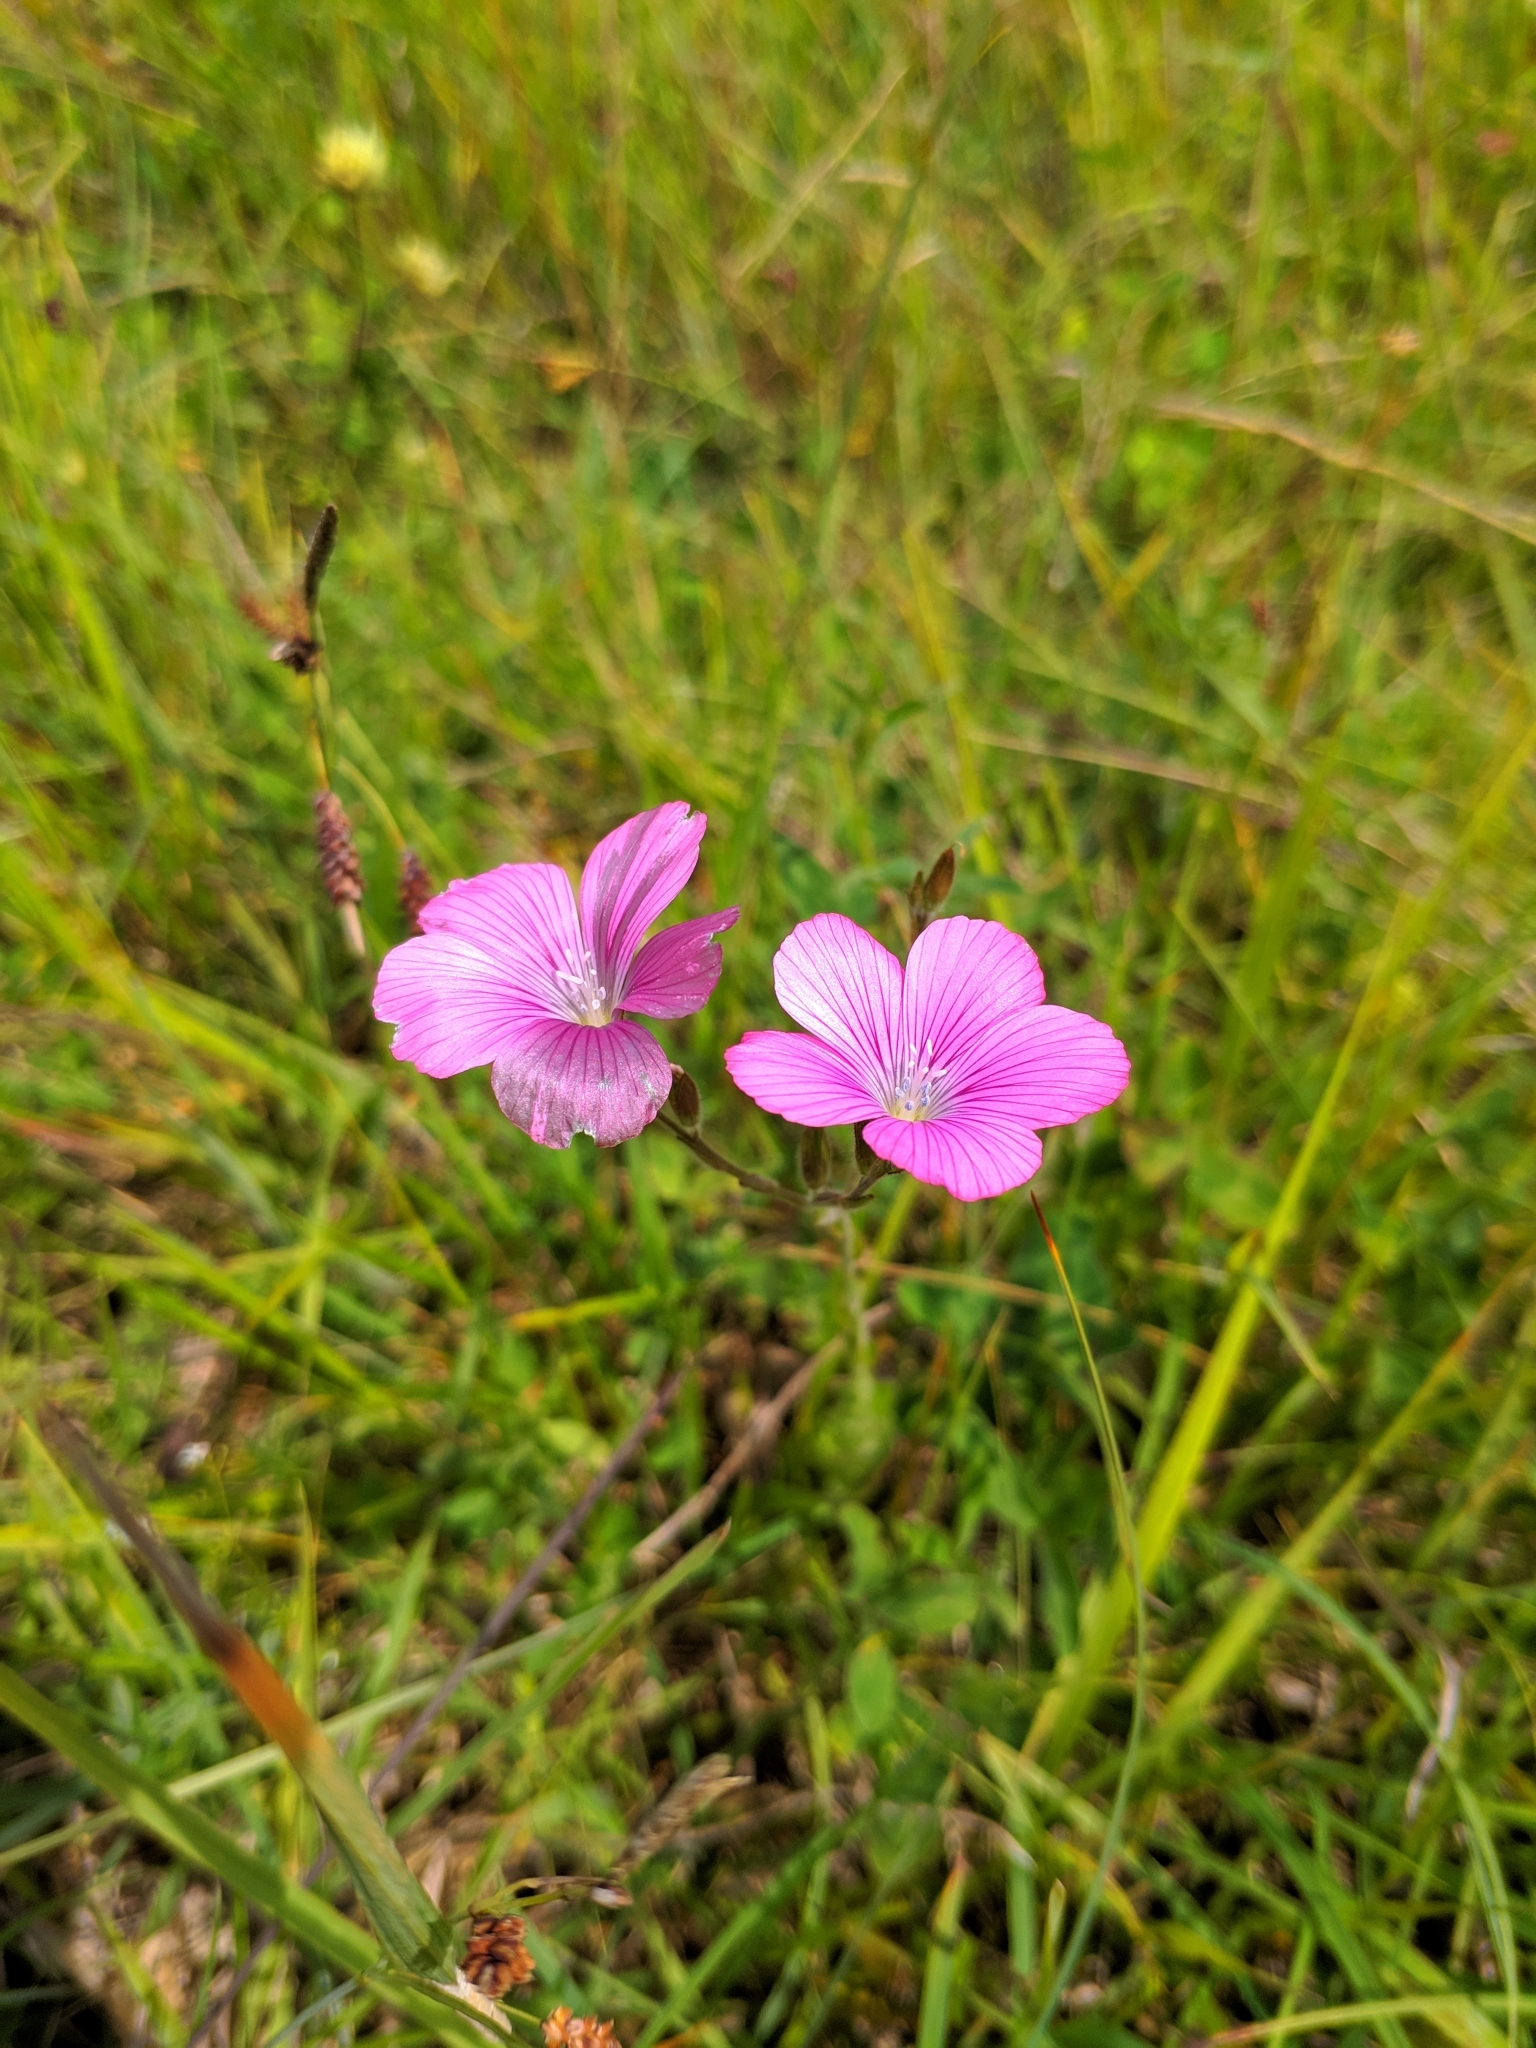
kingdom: Plantae
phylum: Tracheophyta
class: Magnoliopsida
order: Malpighiales
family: Linaceae
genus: Linum
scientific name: Linum viscosum
